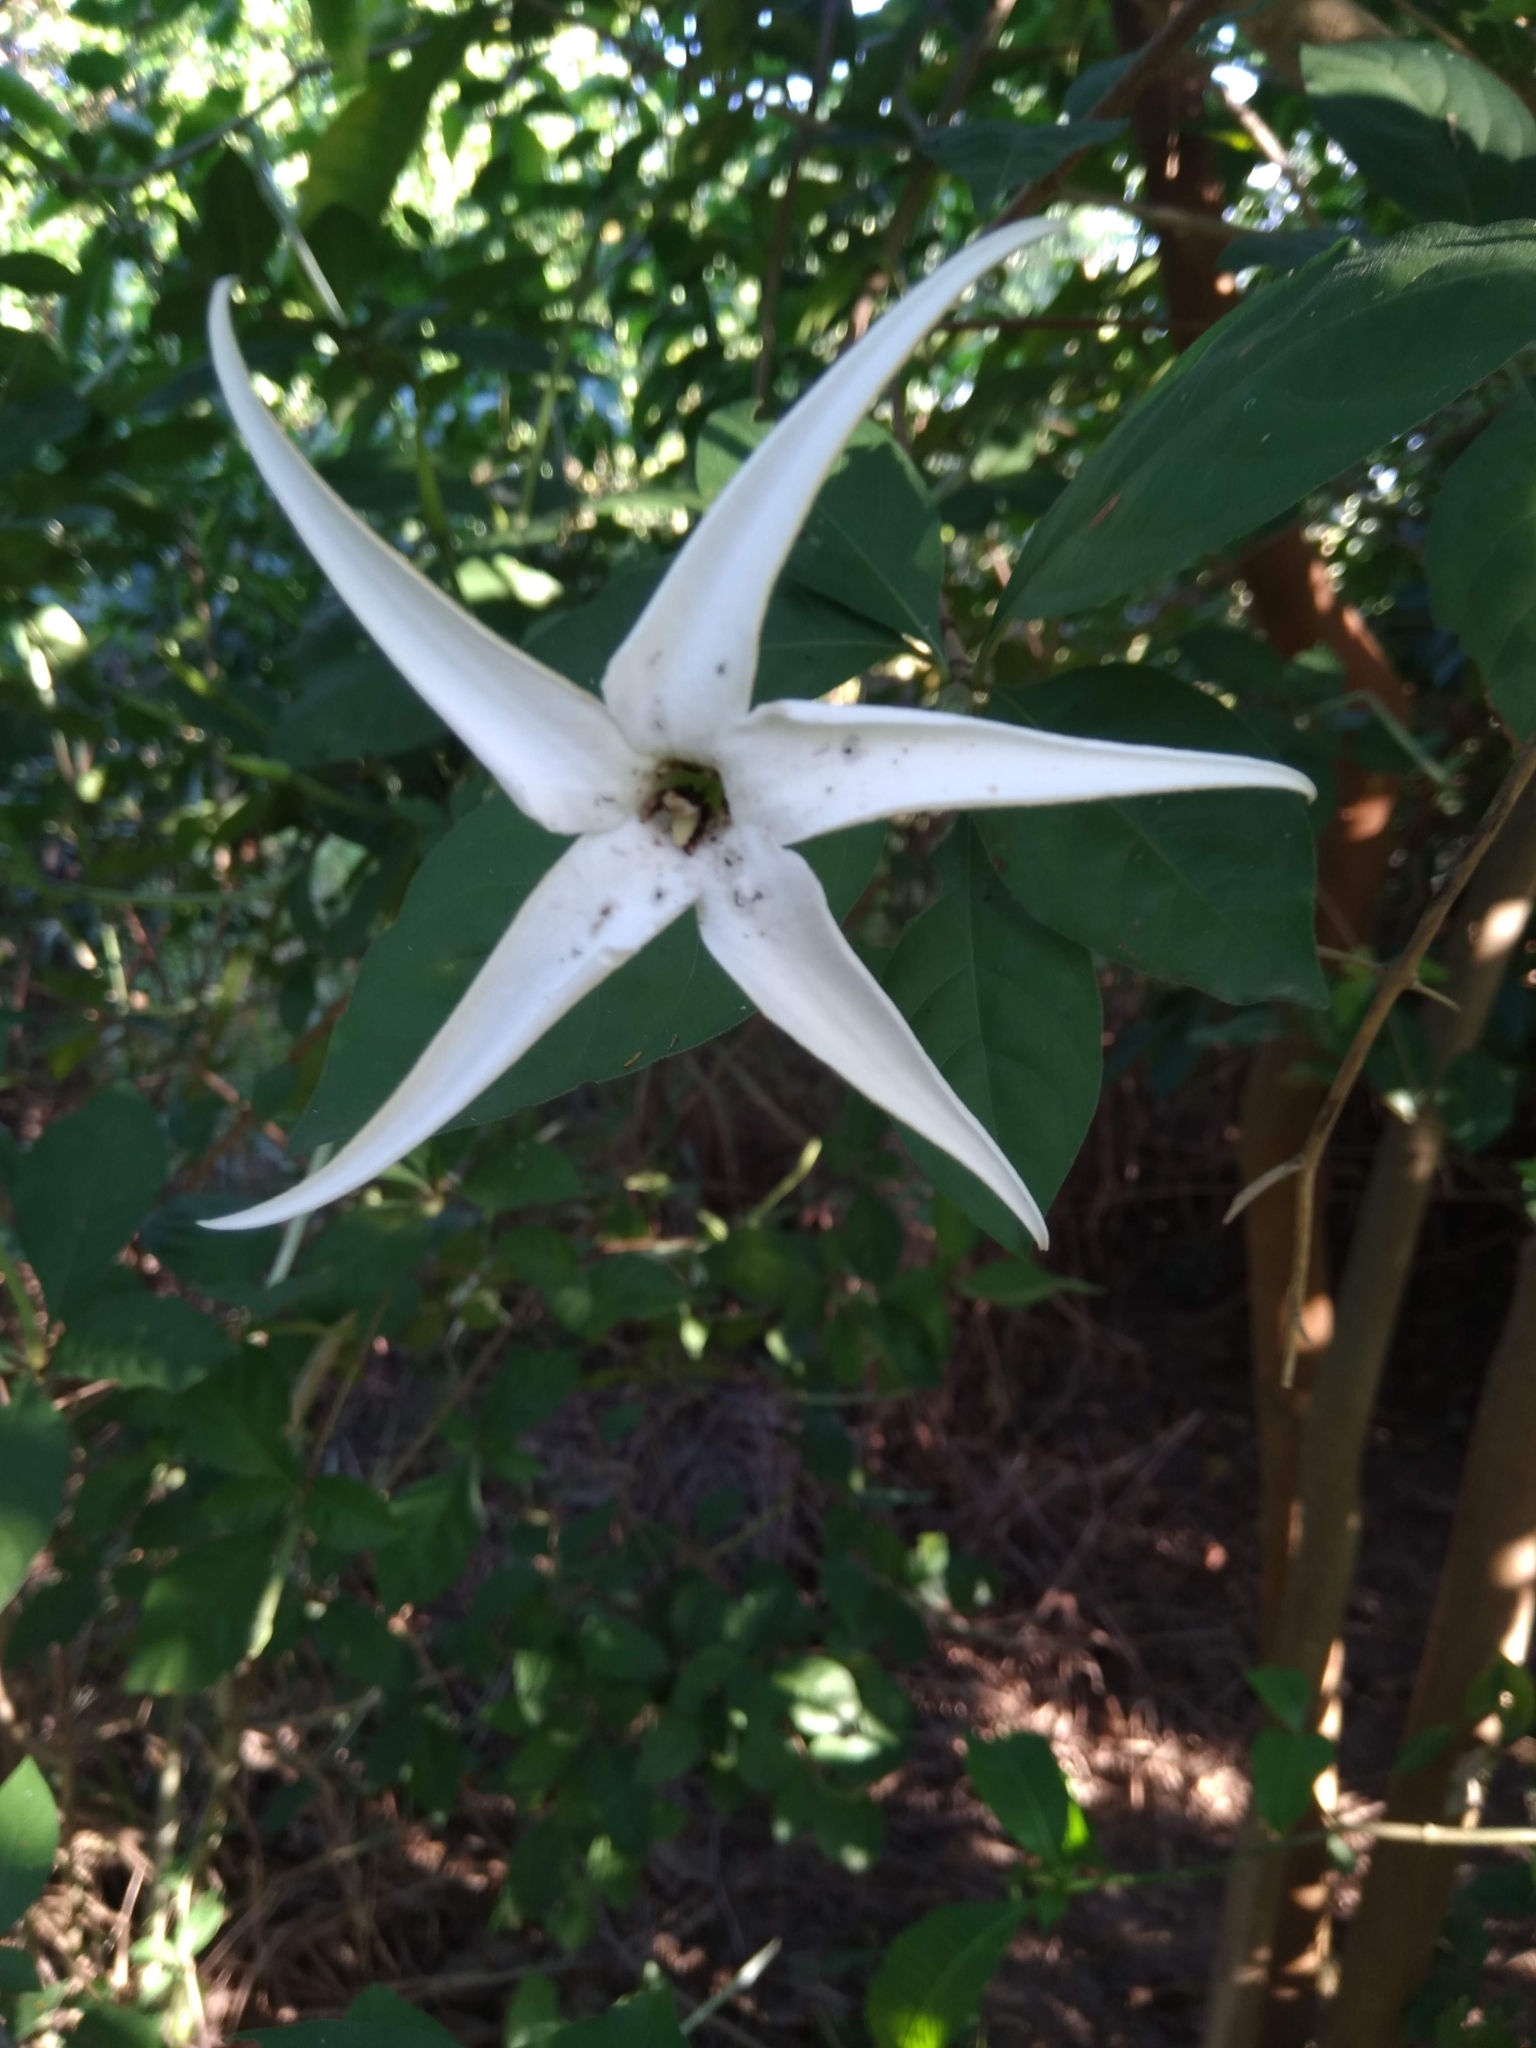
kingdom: Plantae
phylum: Tracheophyta
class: Magnoliopsida
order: Asterales
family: Campanulaceae
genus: Hippobroma
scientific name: Hippobroma longiflora
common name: Madamfate
